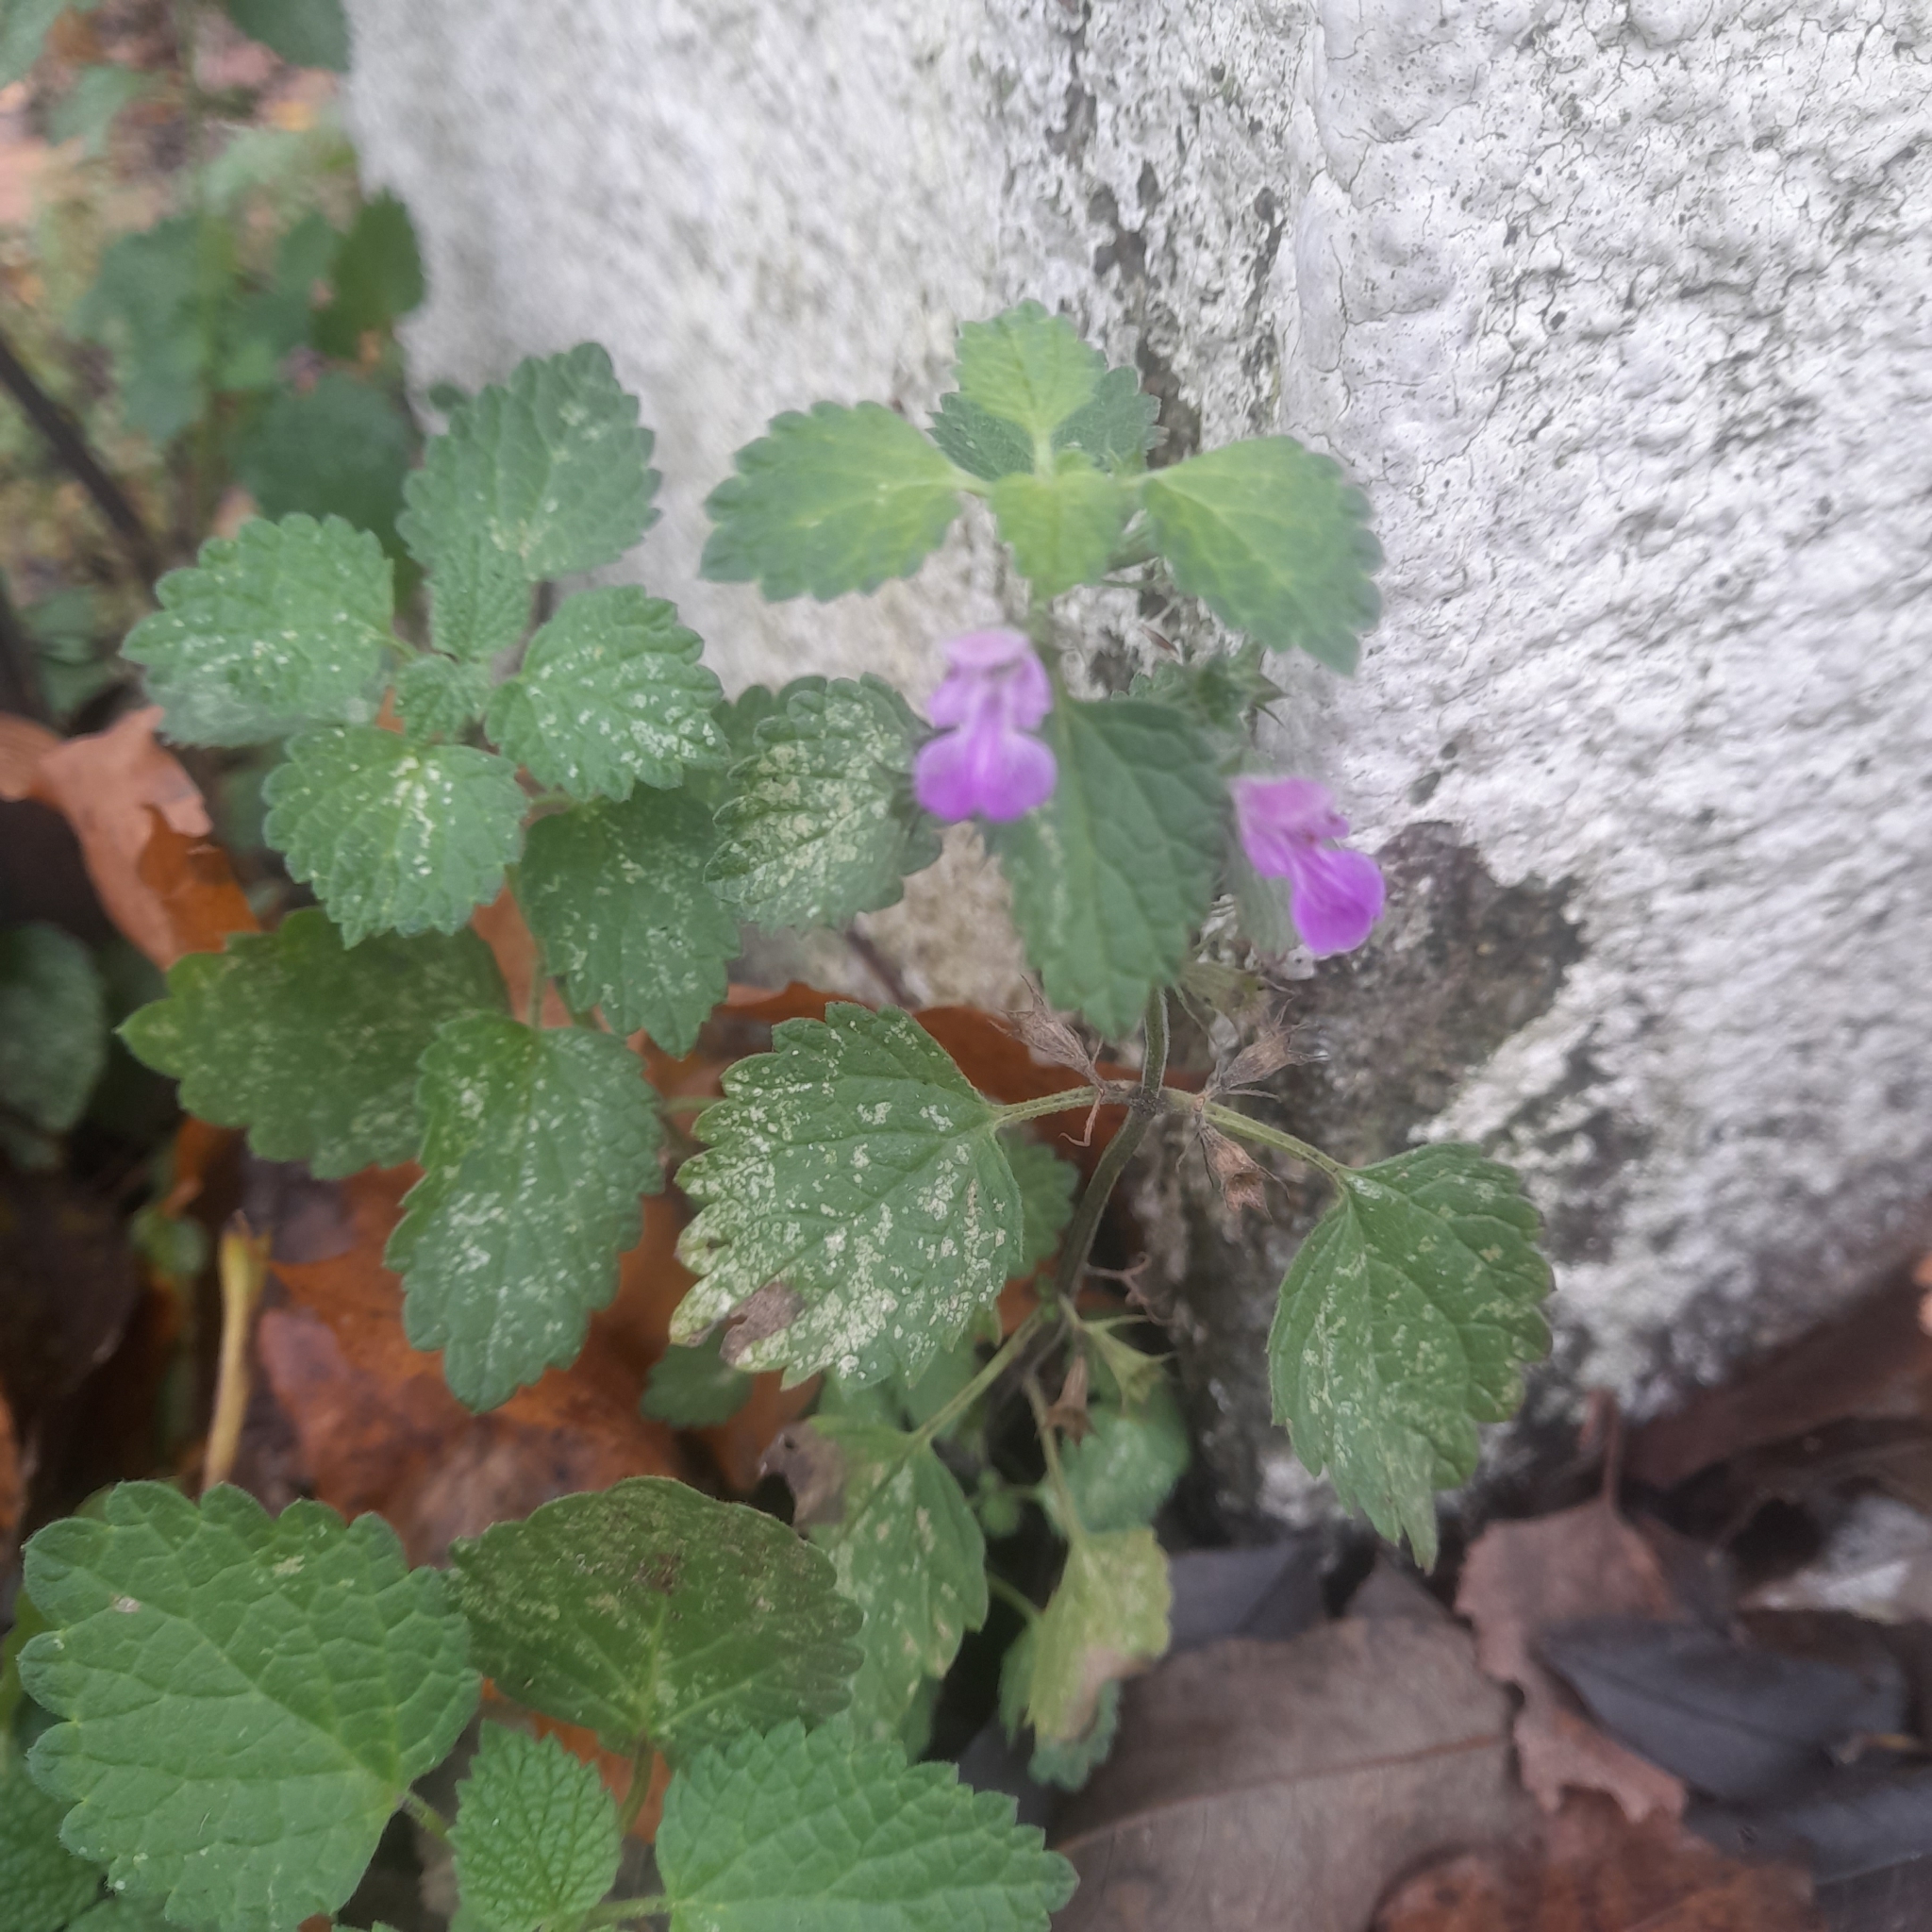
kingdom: Plantae
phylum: Tracheophyta
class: Magnoliopsida
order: Lamiales
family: Lamiaceae
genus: Ballota
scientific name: Ballota nigra
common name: Black horehound
